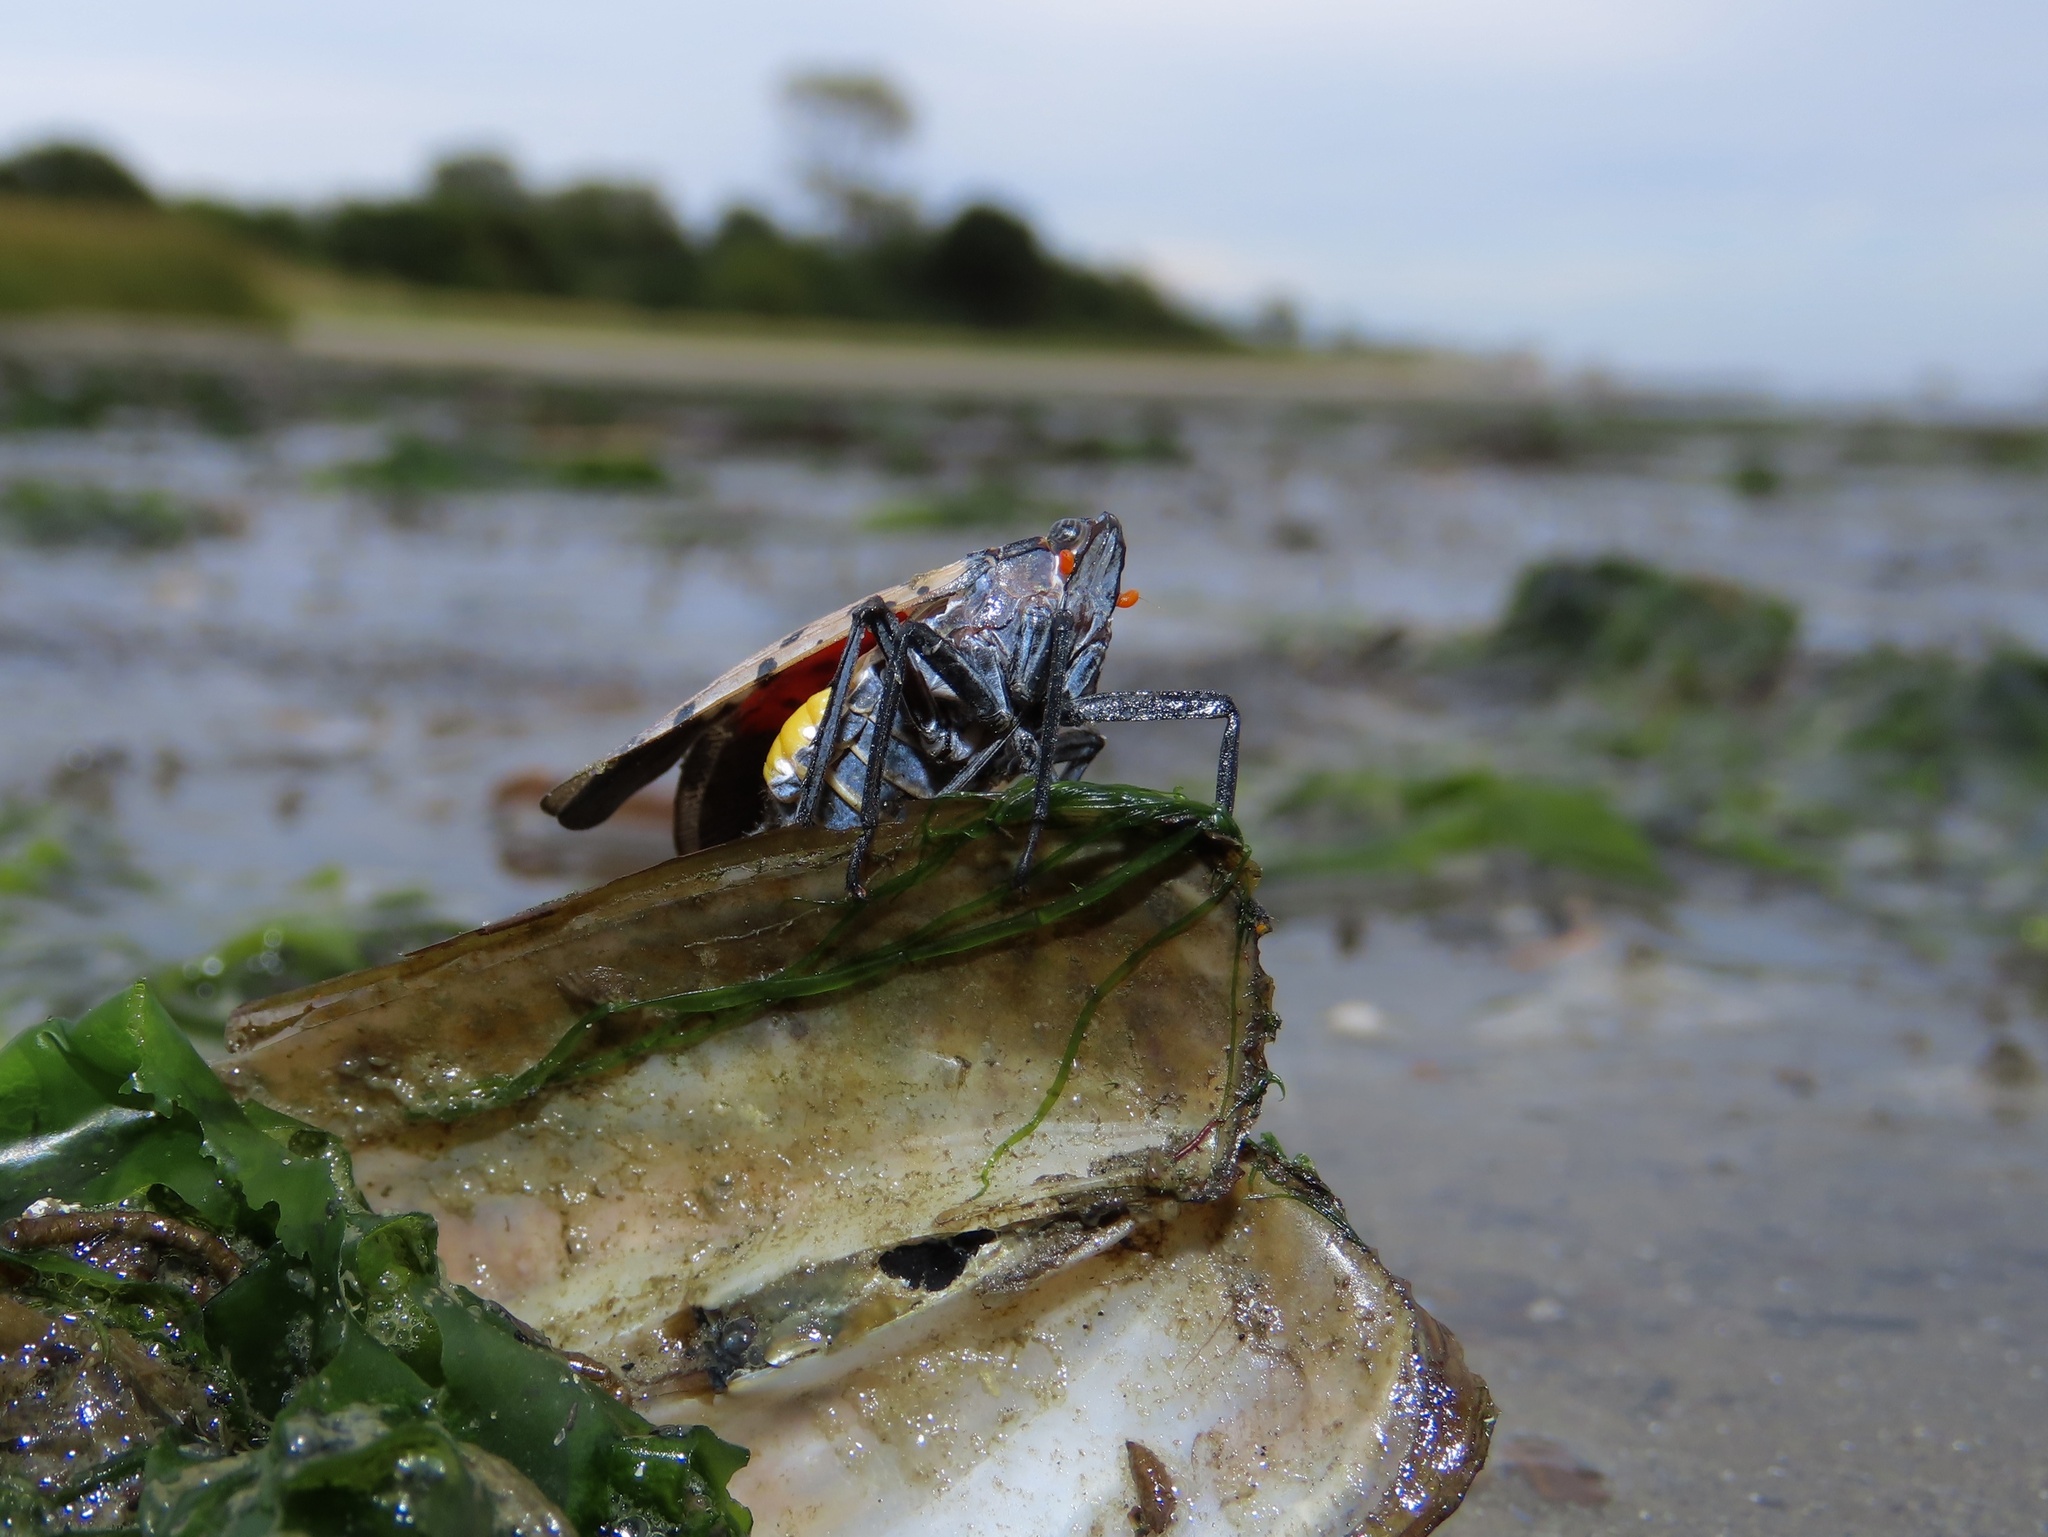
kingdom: Animalia
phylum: Arthropoda
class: Insecta
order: Hemiptera
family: Fulgoridae
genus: Lycorma
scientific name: Lycorma delicatula
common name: Spotted lanternfly
